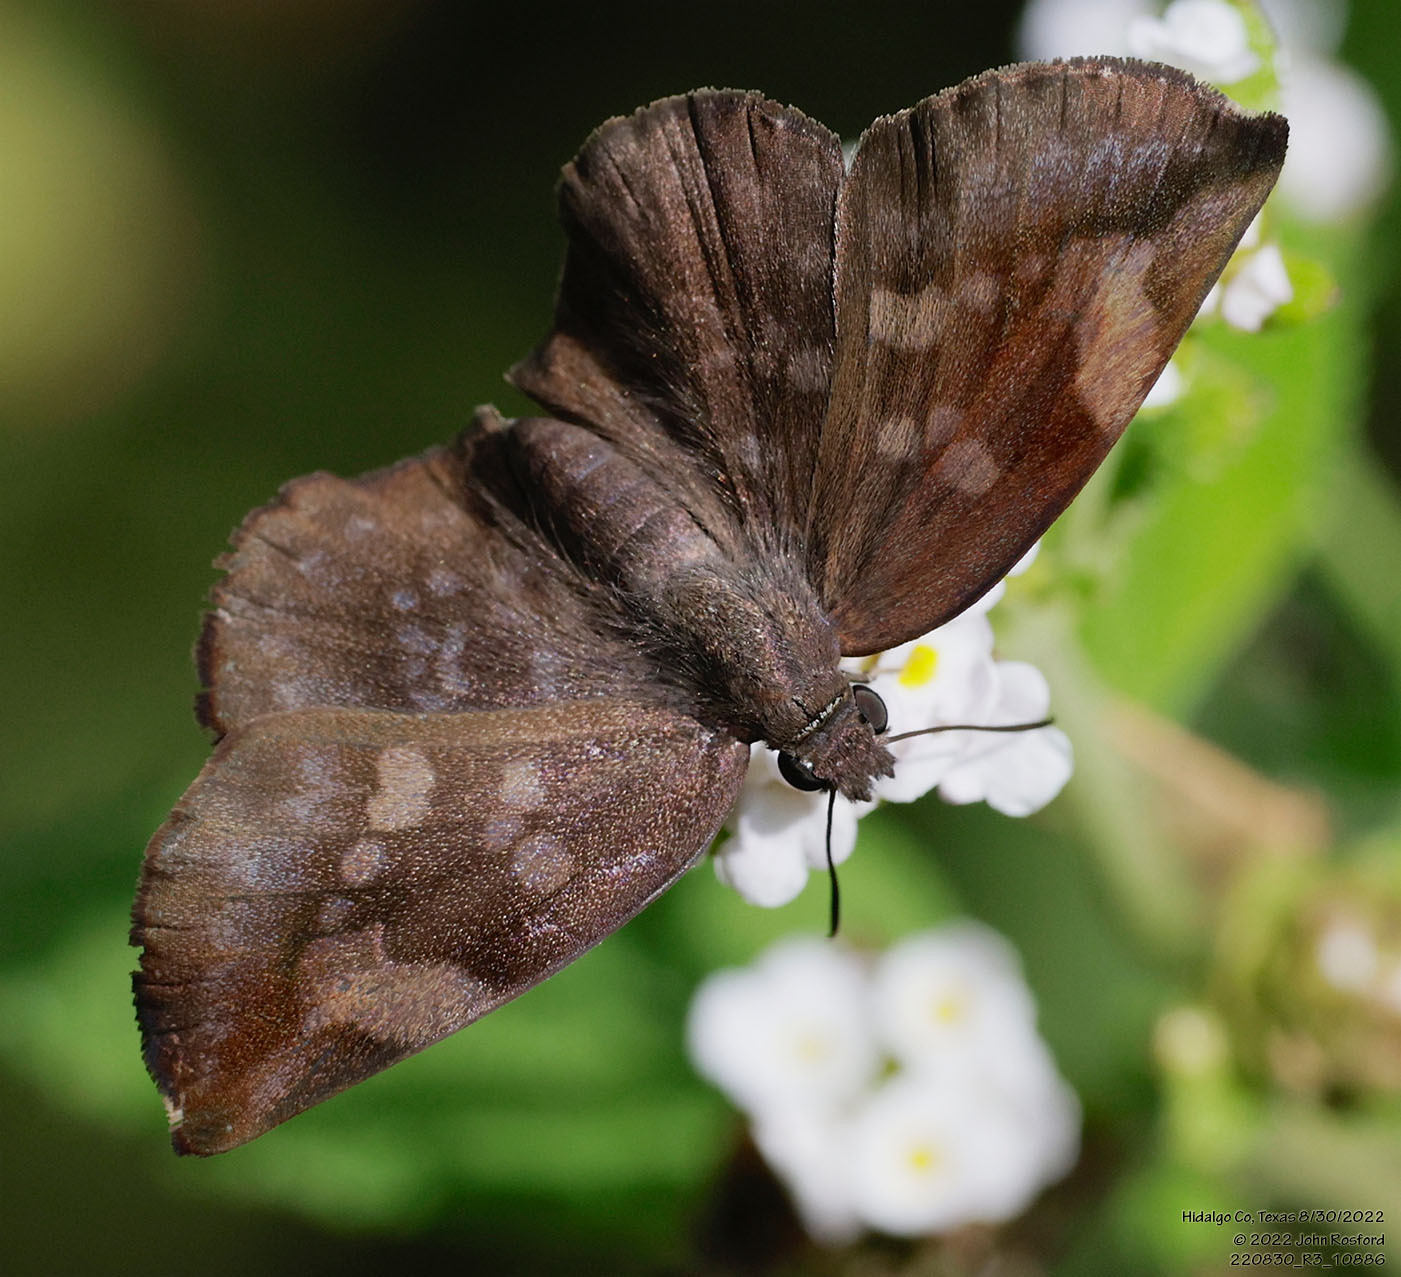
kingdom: Animalia
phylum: Arthropoda
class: Insecta
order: Lepidoptera
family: Hesperiidae
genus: Achlyodes
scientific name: Achlyodes thraso
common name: Sickle-winged skipper
